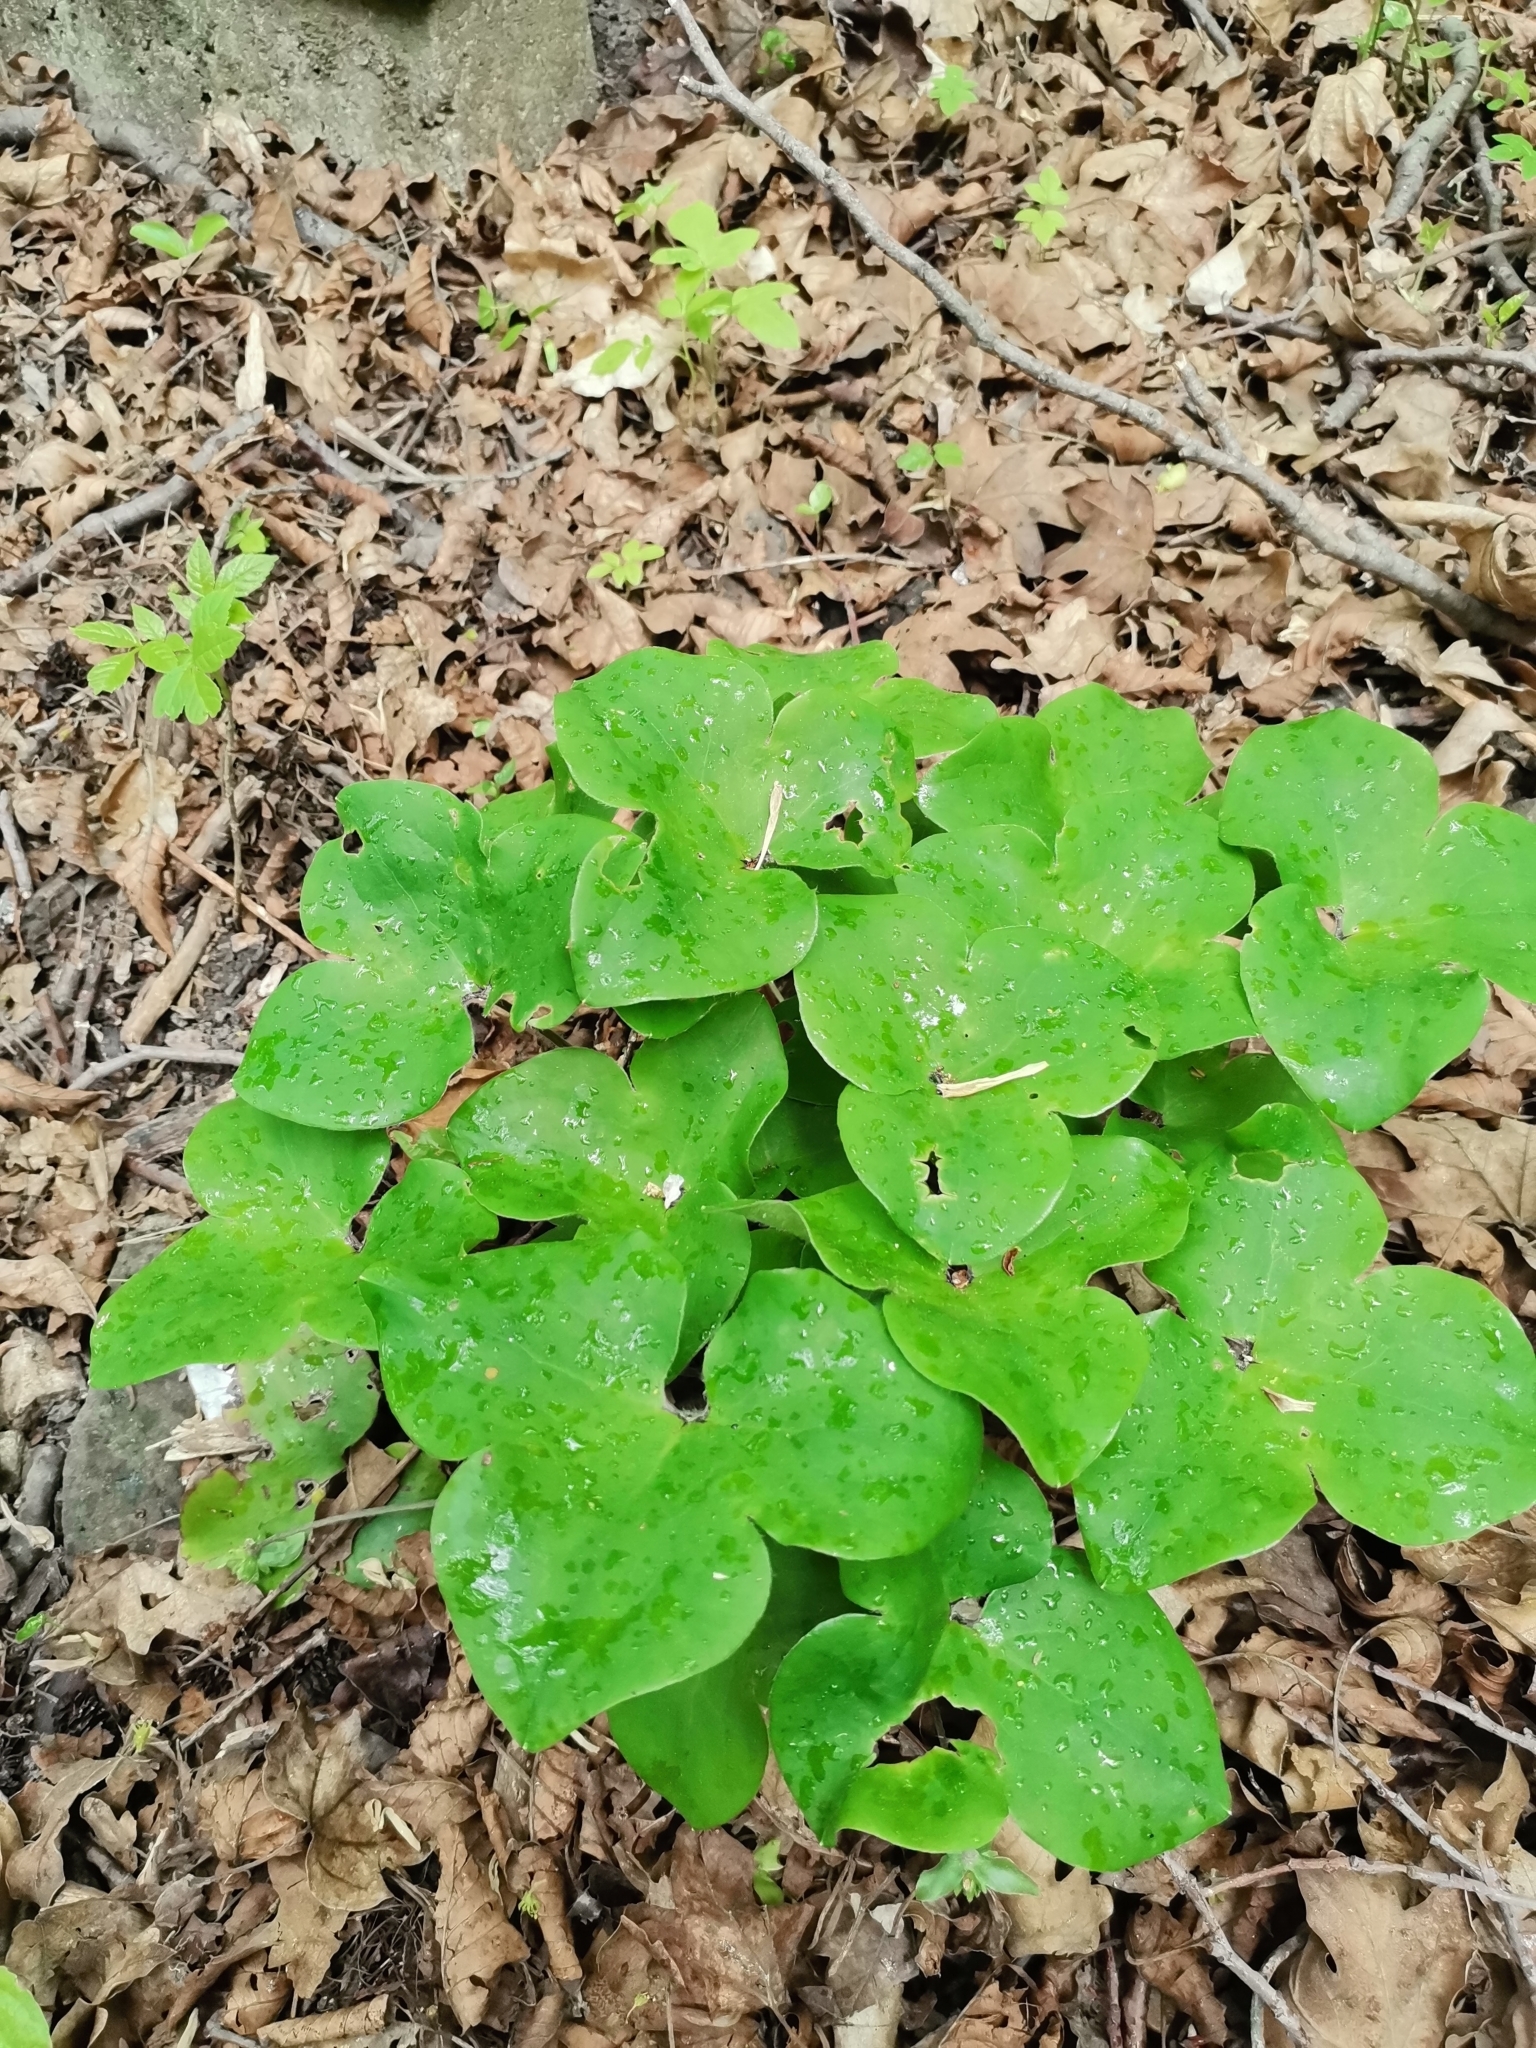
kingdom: Plantae
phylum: Tracheophyta
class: Magnoliopsida
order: Ranunculales
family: Ranunculaceae
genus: Hepatica
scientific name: Hepatica nobilis
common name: Liverleaf
